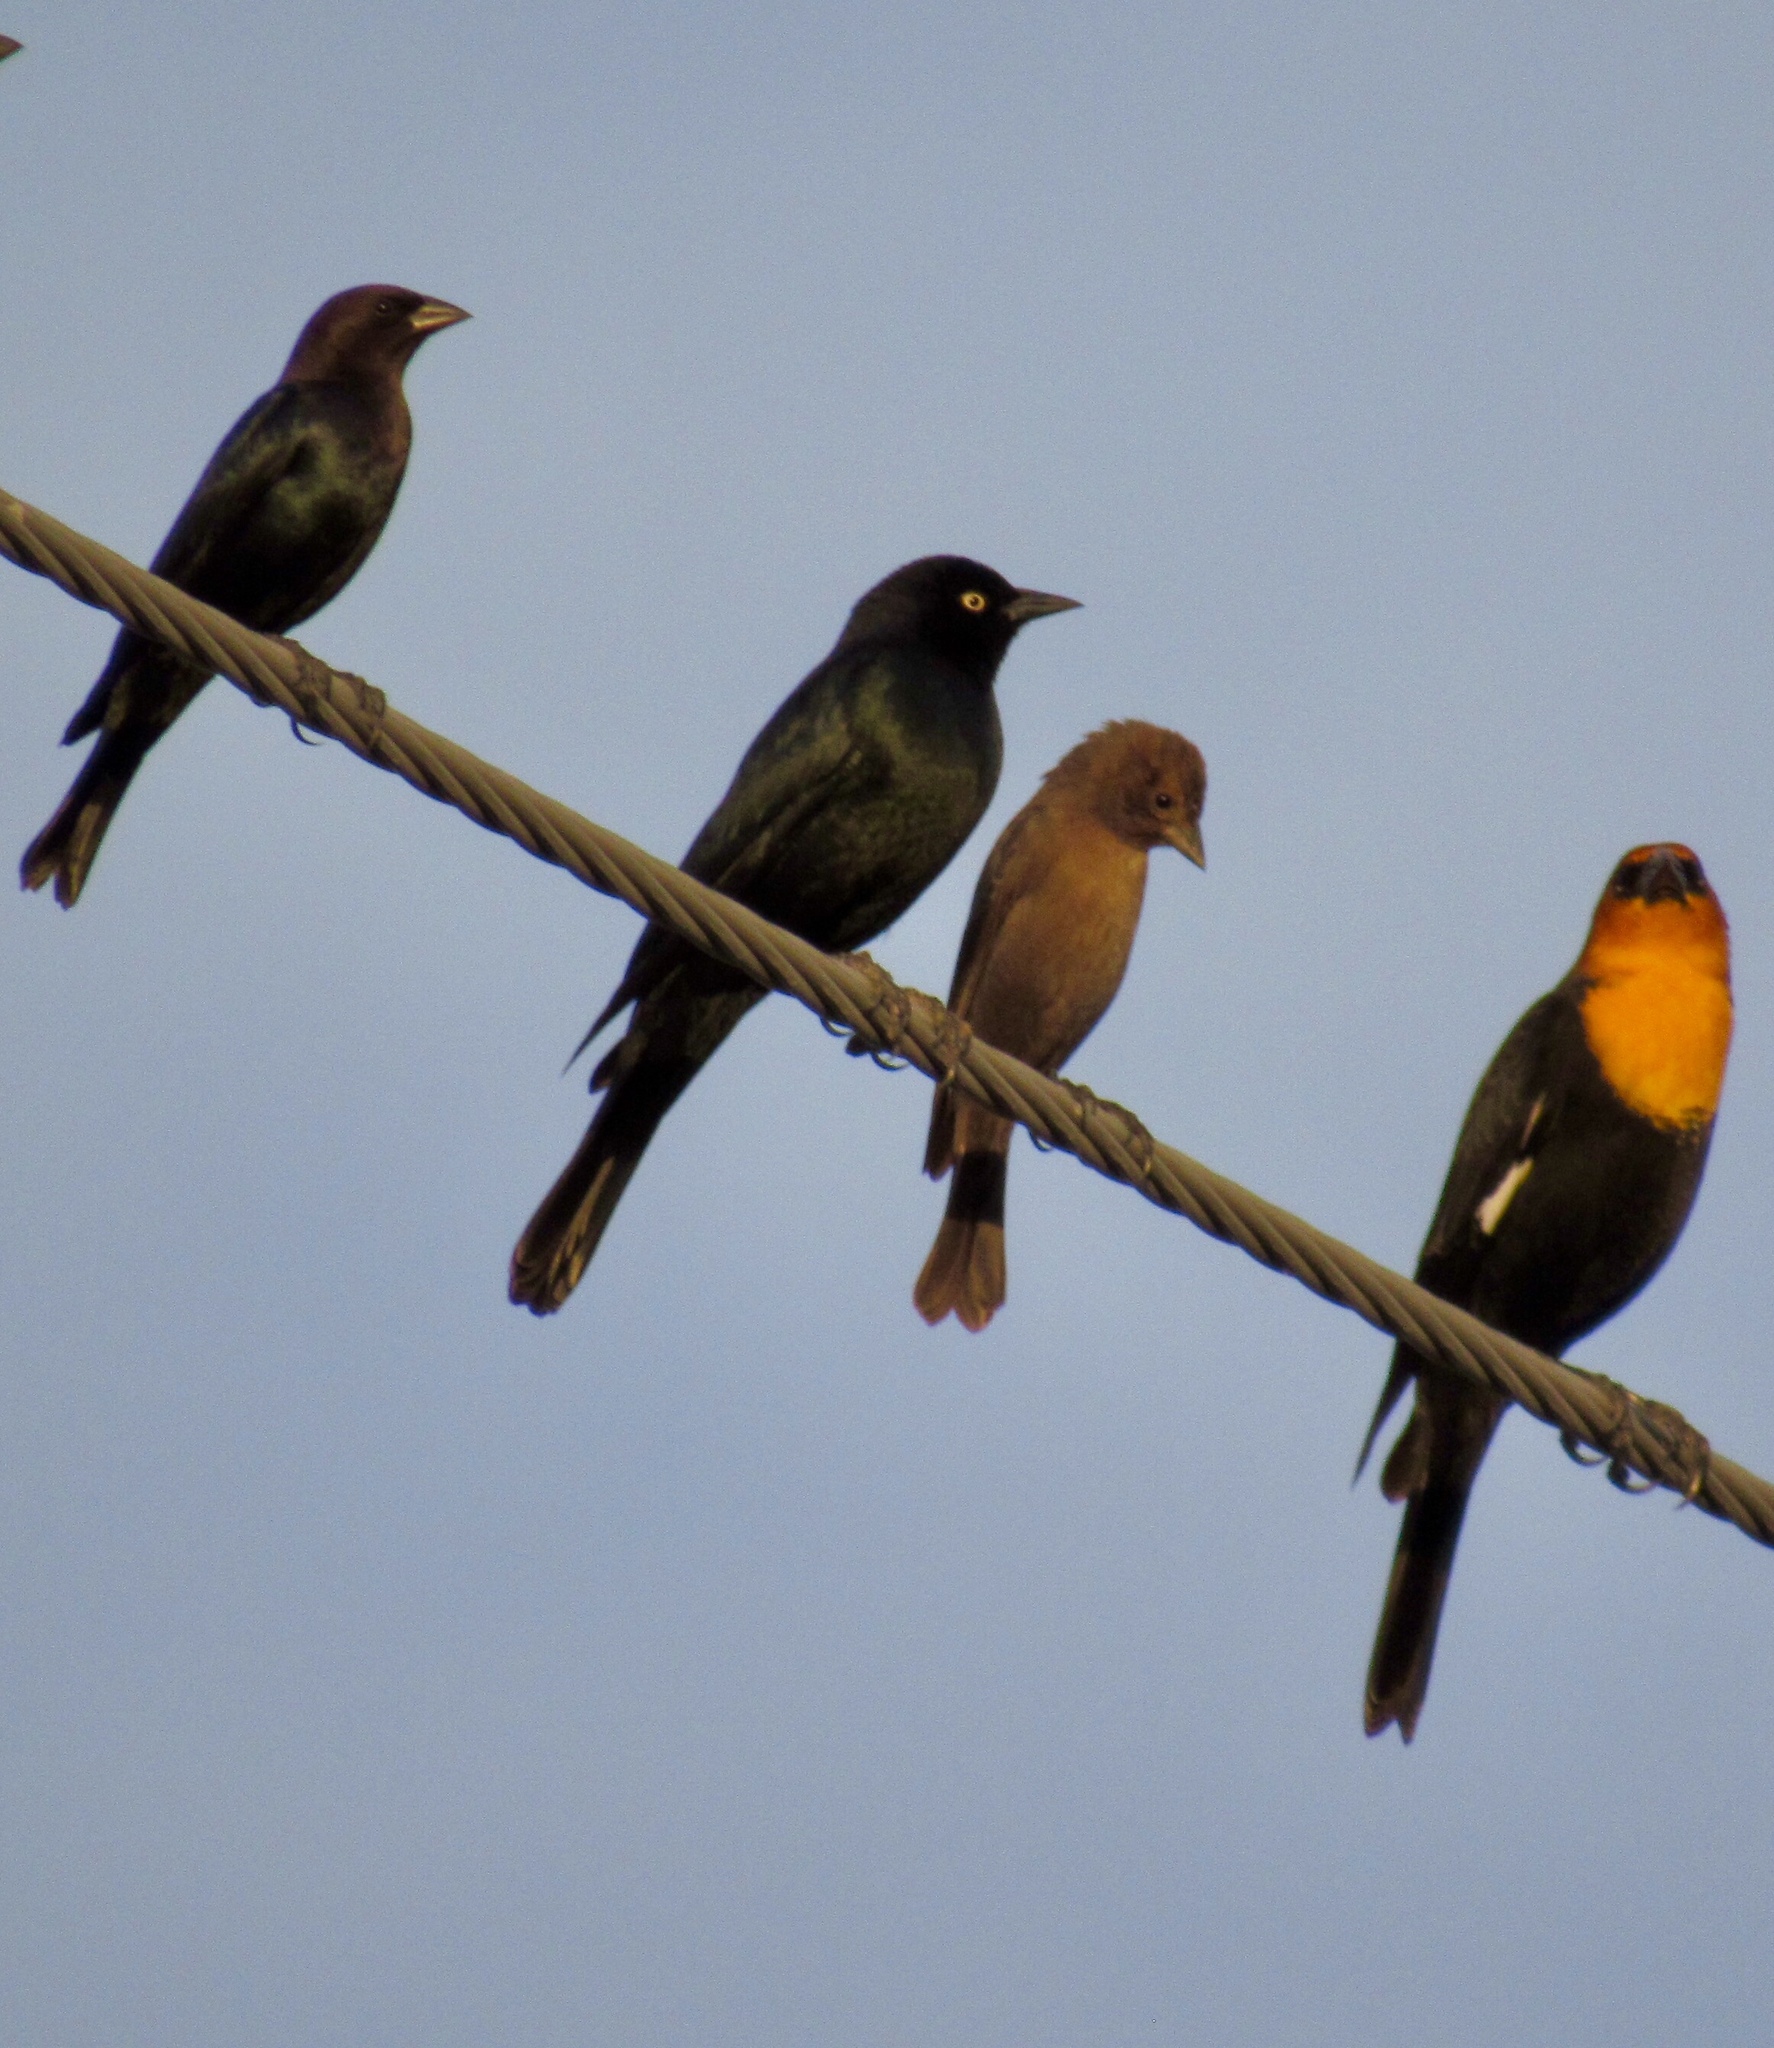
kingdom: Animalia
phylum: Chordata
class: Aves
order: Passeriformes
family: Icteridae
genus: Molothrus
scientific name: Molothrus ater
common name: Brown-headed cowbird
